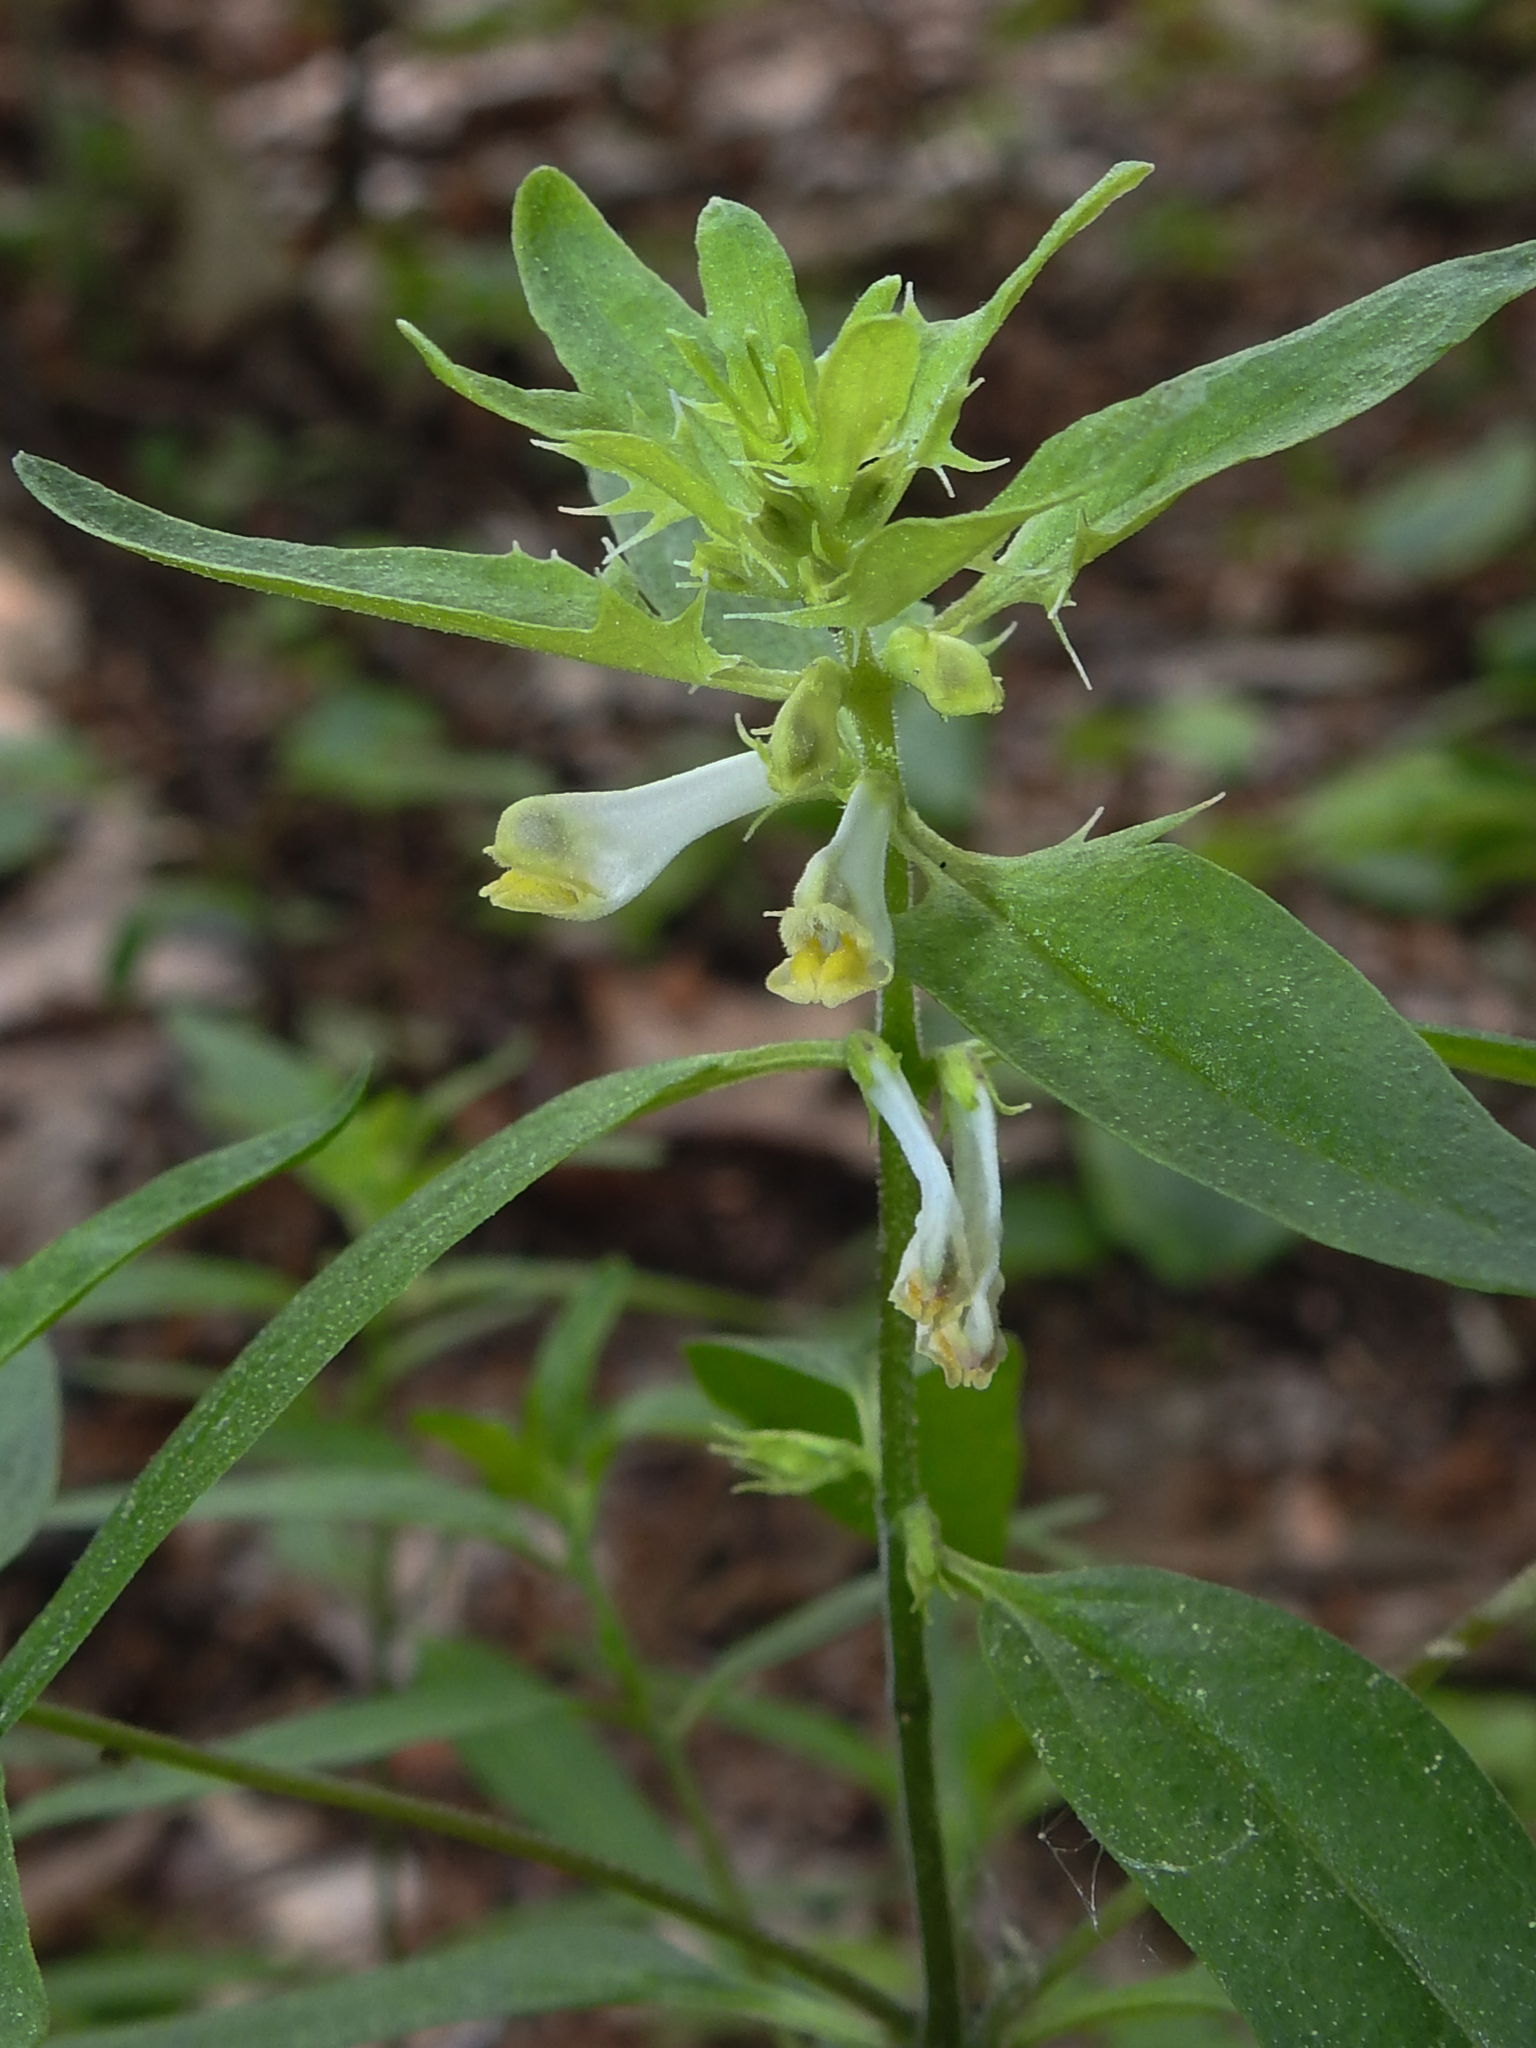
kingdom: Plantae
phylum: Tracheophyta
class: Magnoliopsida
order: Lamiales
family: Orobanchaceae
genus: Melampyrum
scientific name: Melampyrum lineare
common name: American cow-wheat
